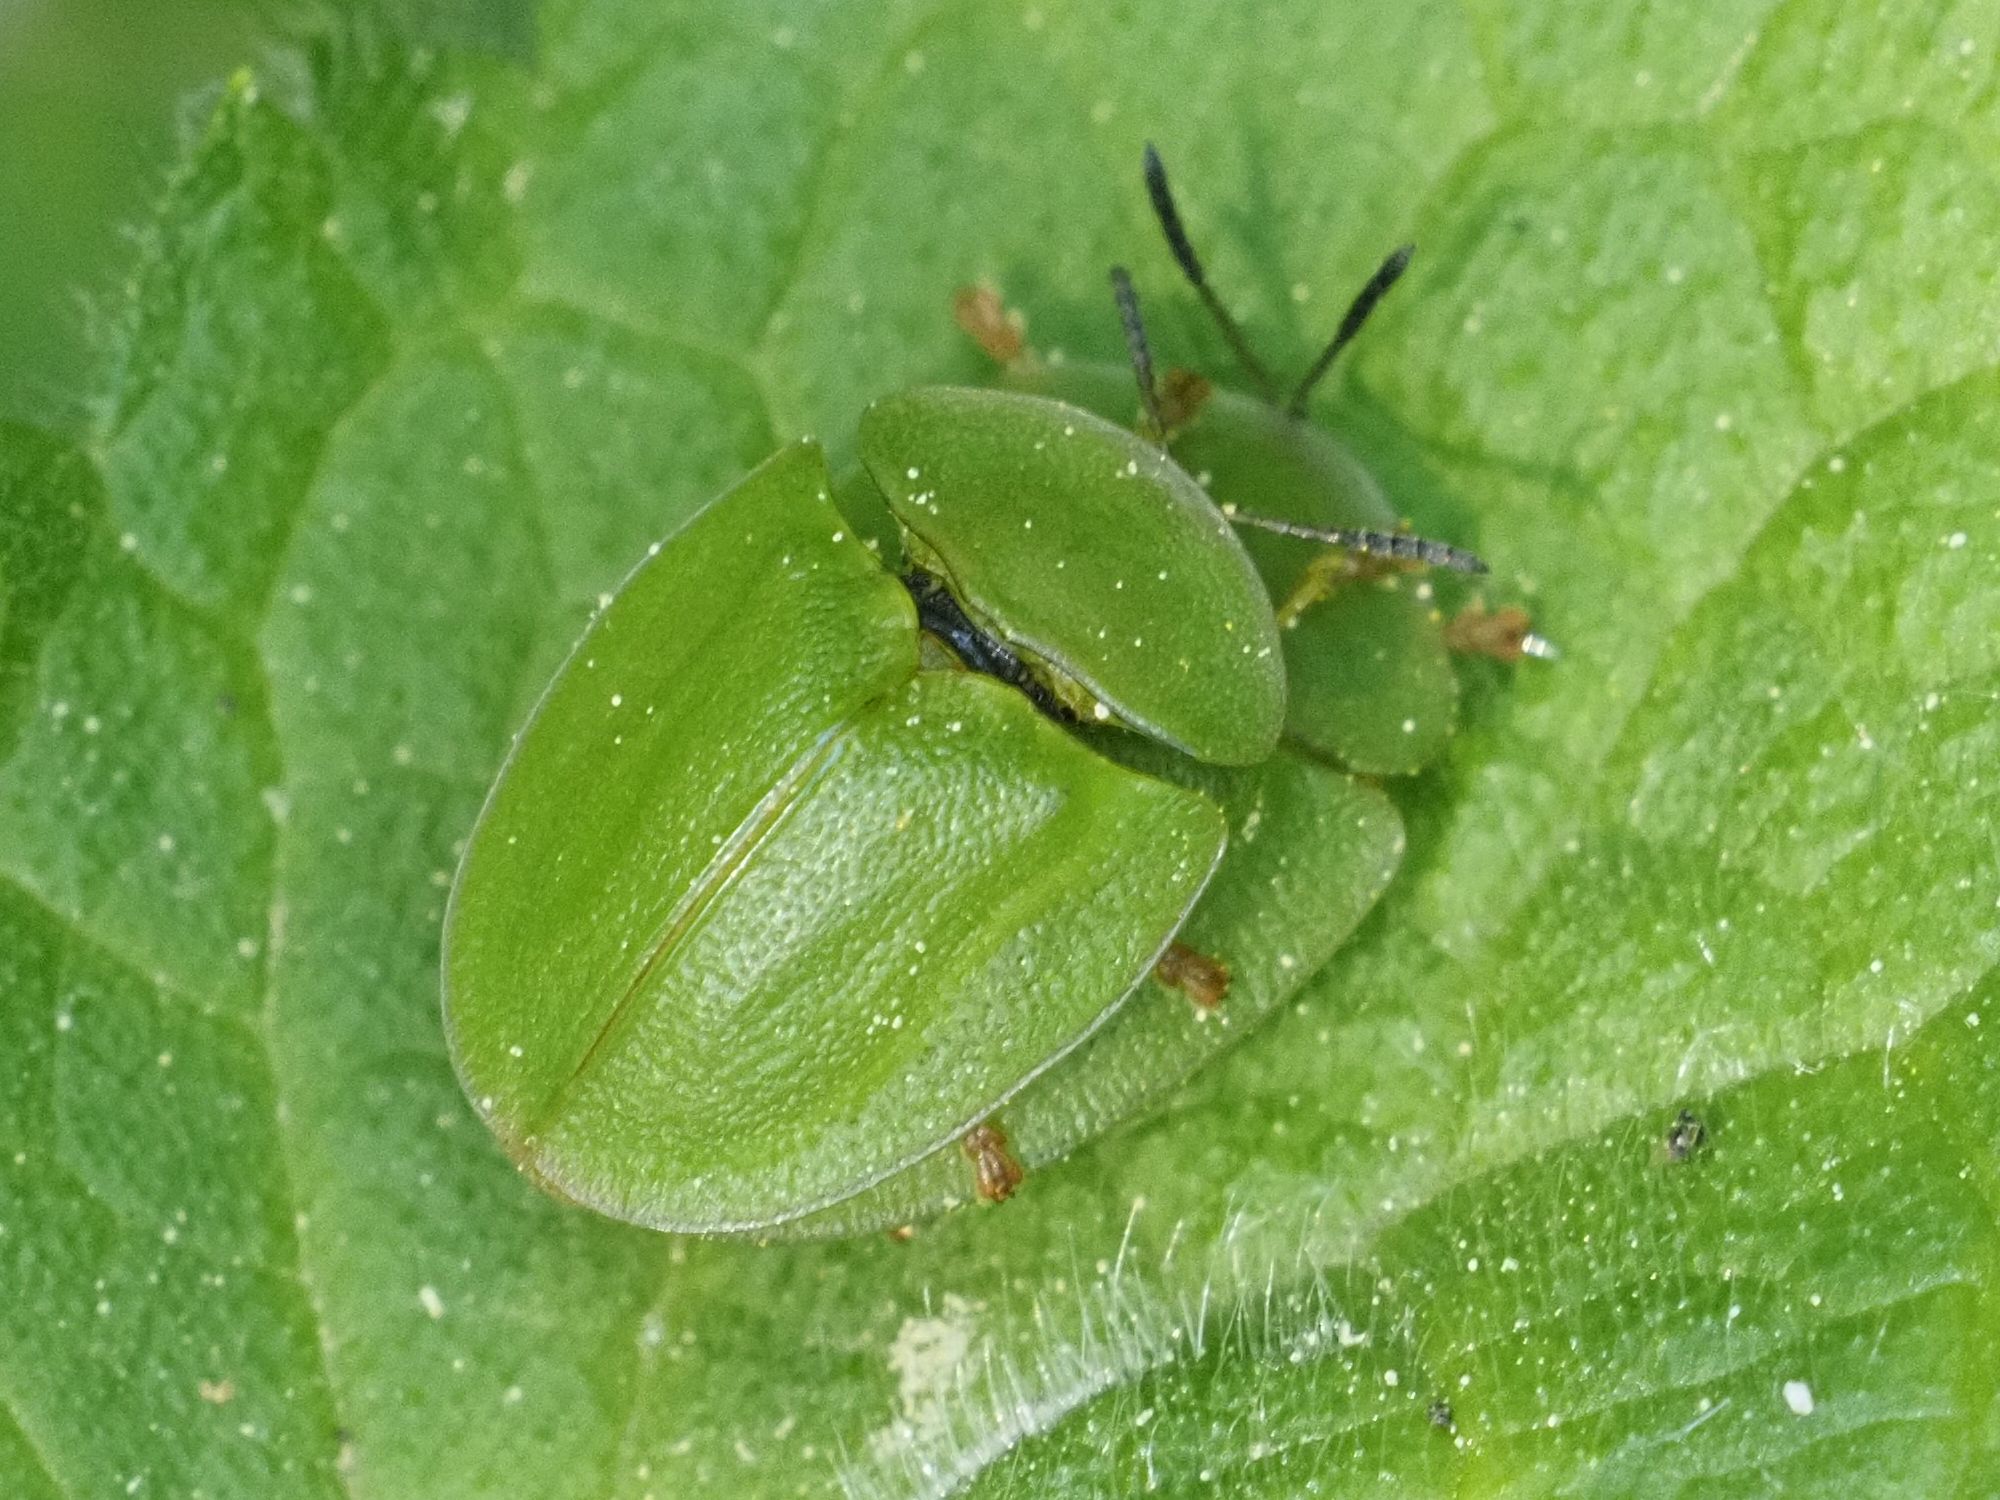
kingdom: Animalia
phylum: Arthropoda
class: Insecta
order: Coleoptera
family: Chrysomelidae
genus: Cassida
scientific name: Cassida viridis
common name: Green tortoise beetle
